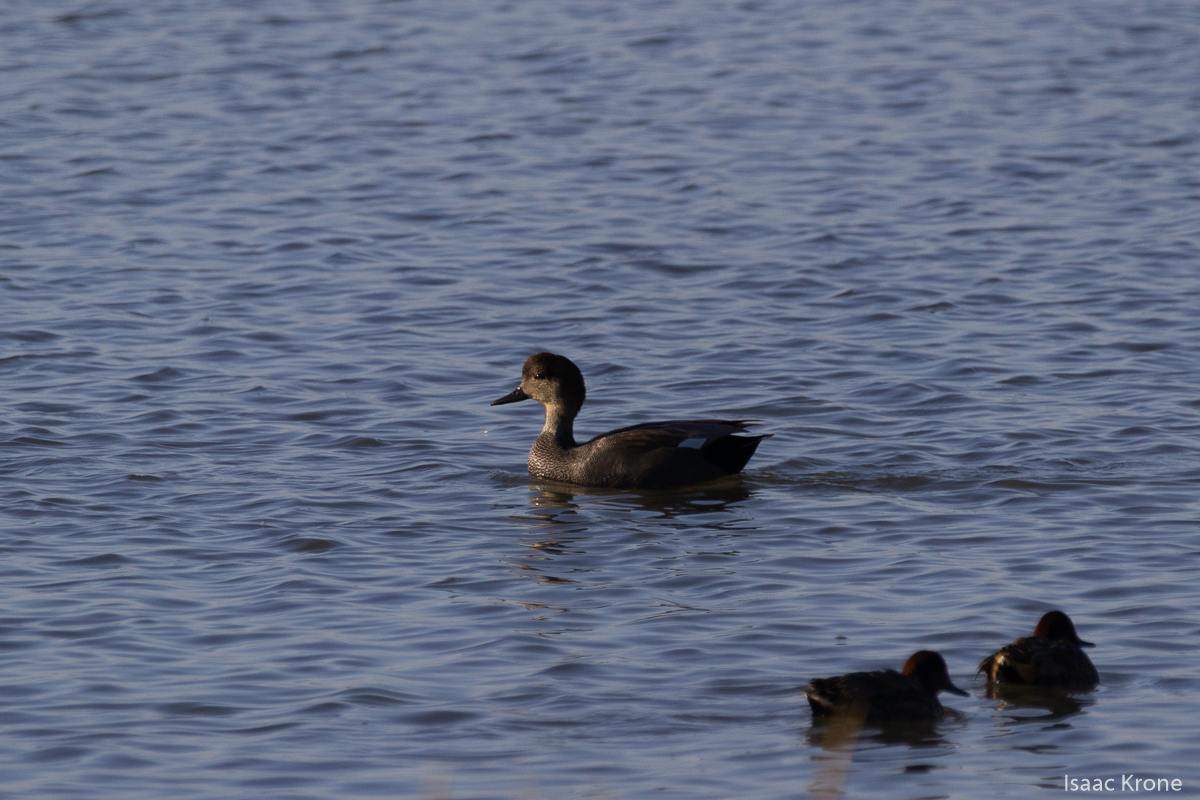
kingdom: Animalia
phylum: Chordata
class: Aves
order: Anseriformes
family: Anatidae
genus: Mareca
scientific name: Mareca strepera
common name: Gadwall
